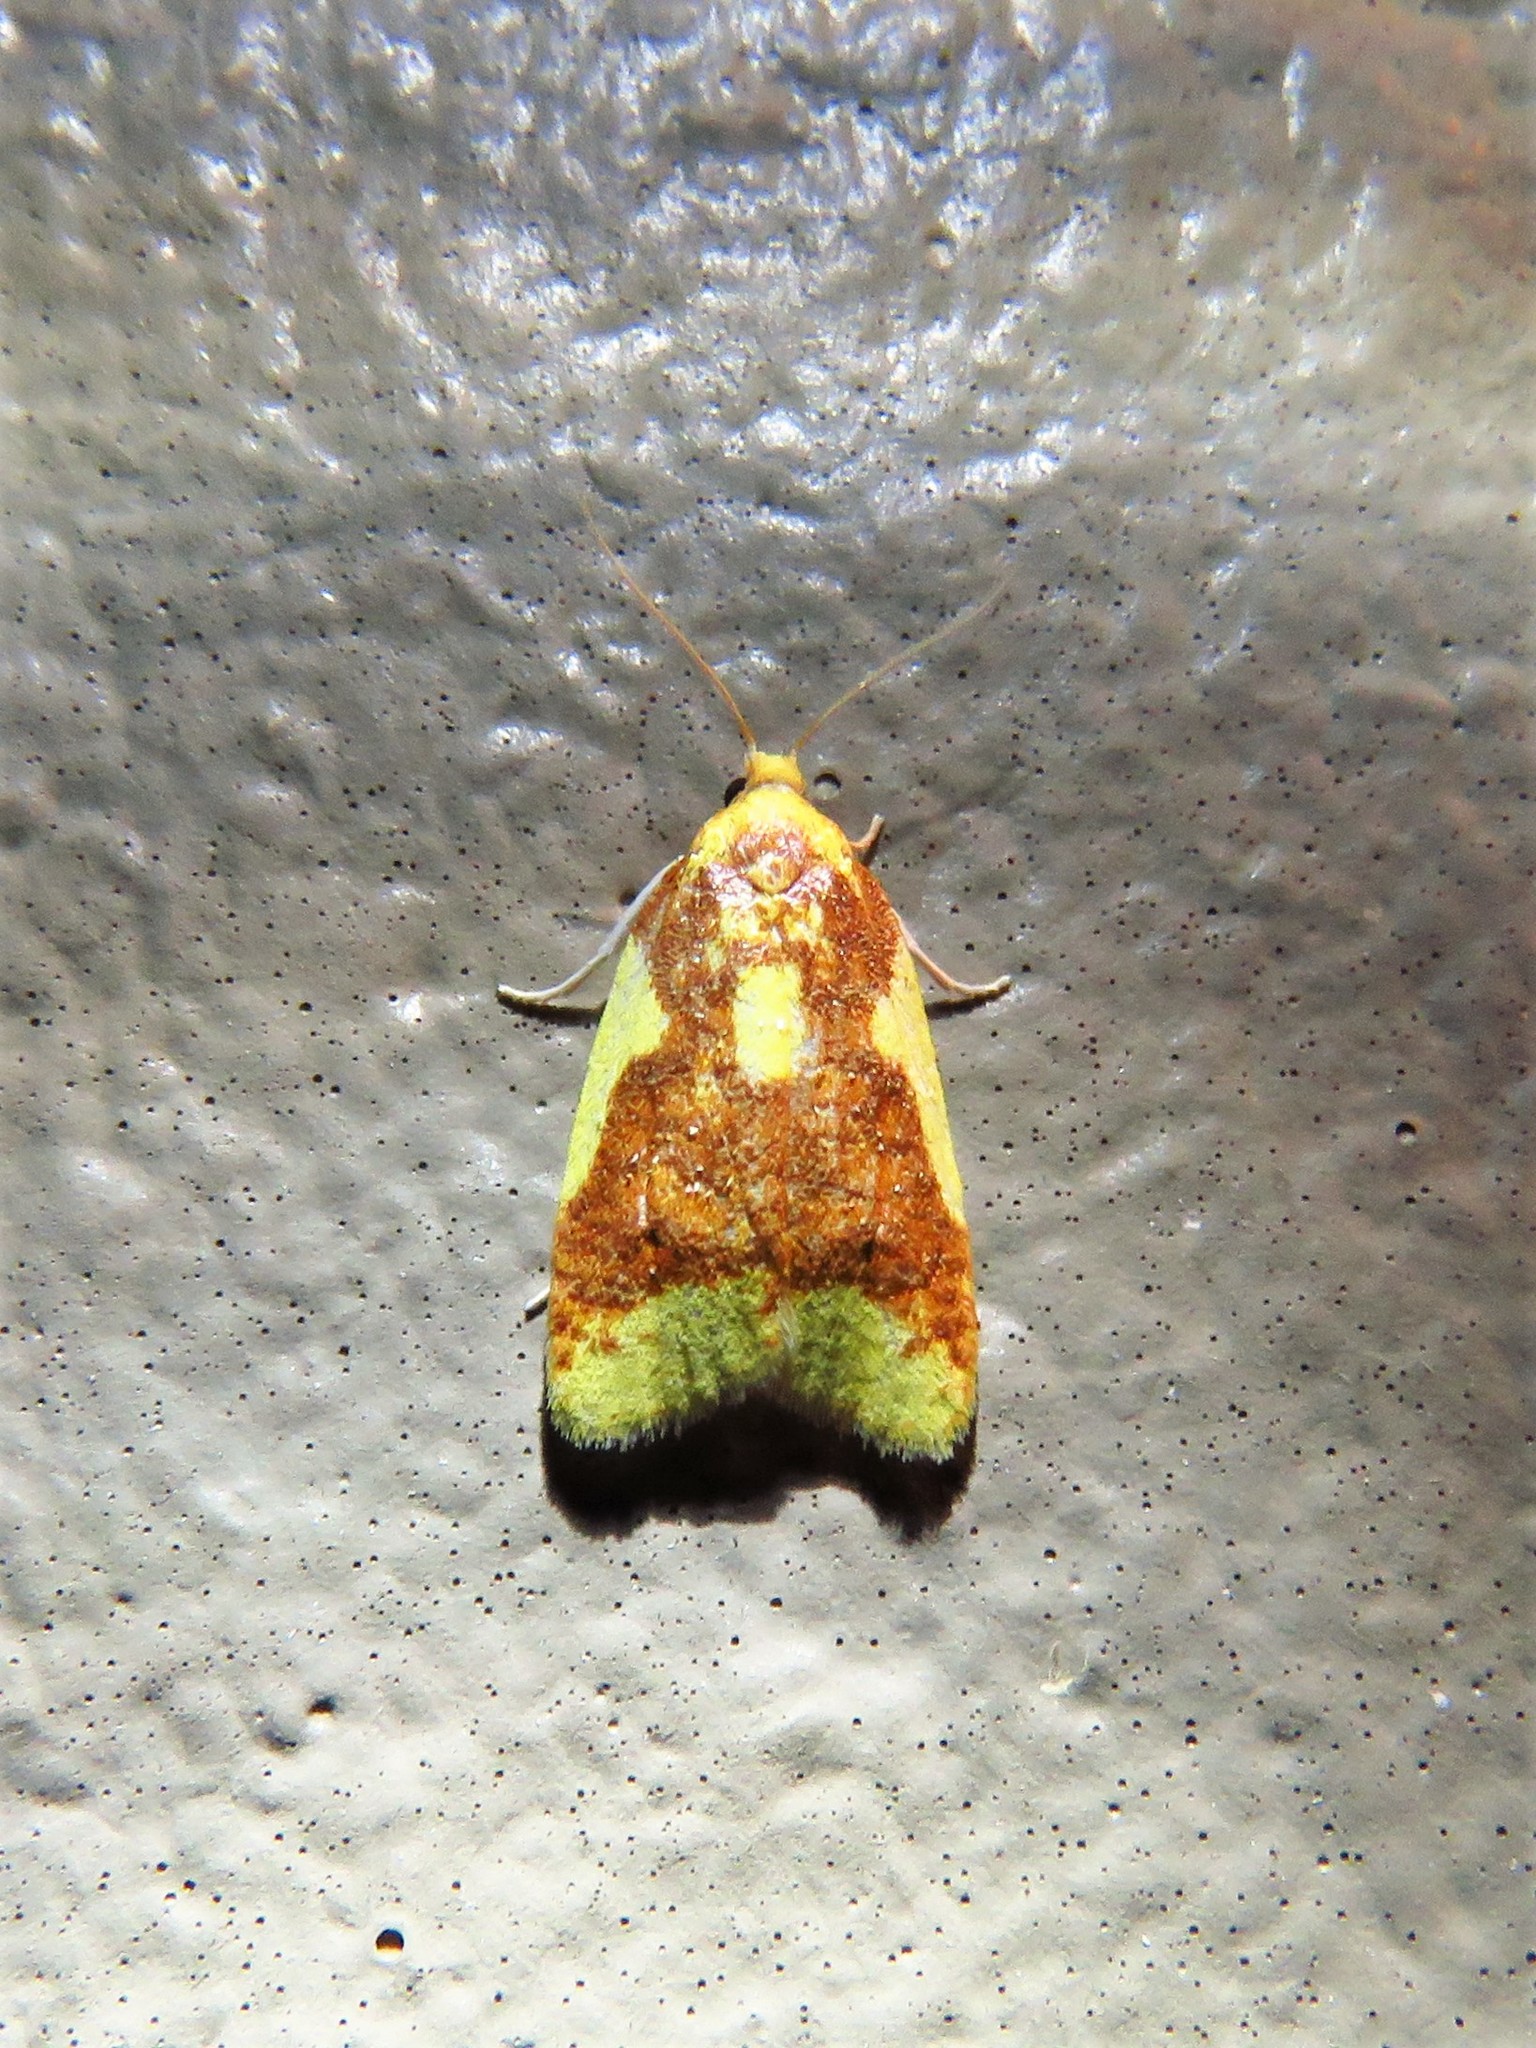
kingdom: Animalia
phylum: Arthropoda
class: Insecta
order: Lepidoptera
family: Tortricidae
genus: Sparganothis
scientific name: Sparganothis pulcherrimana
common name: Beautiful sparganothis
